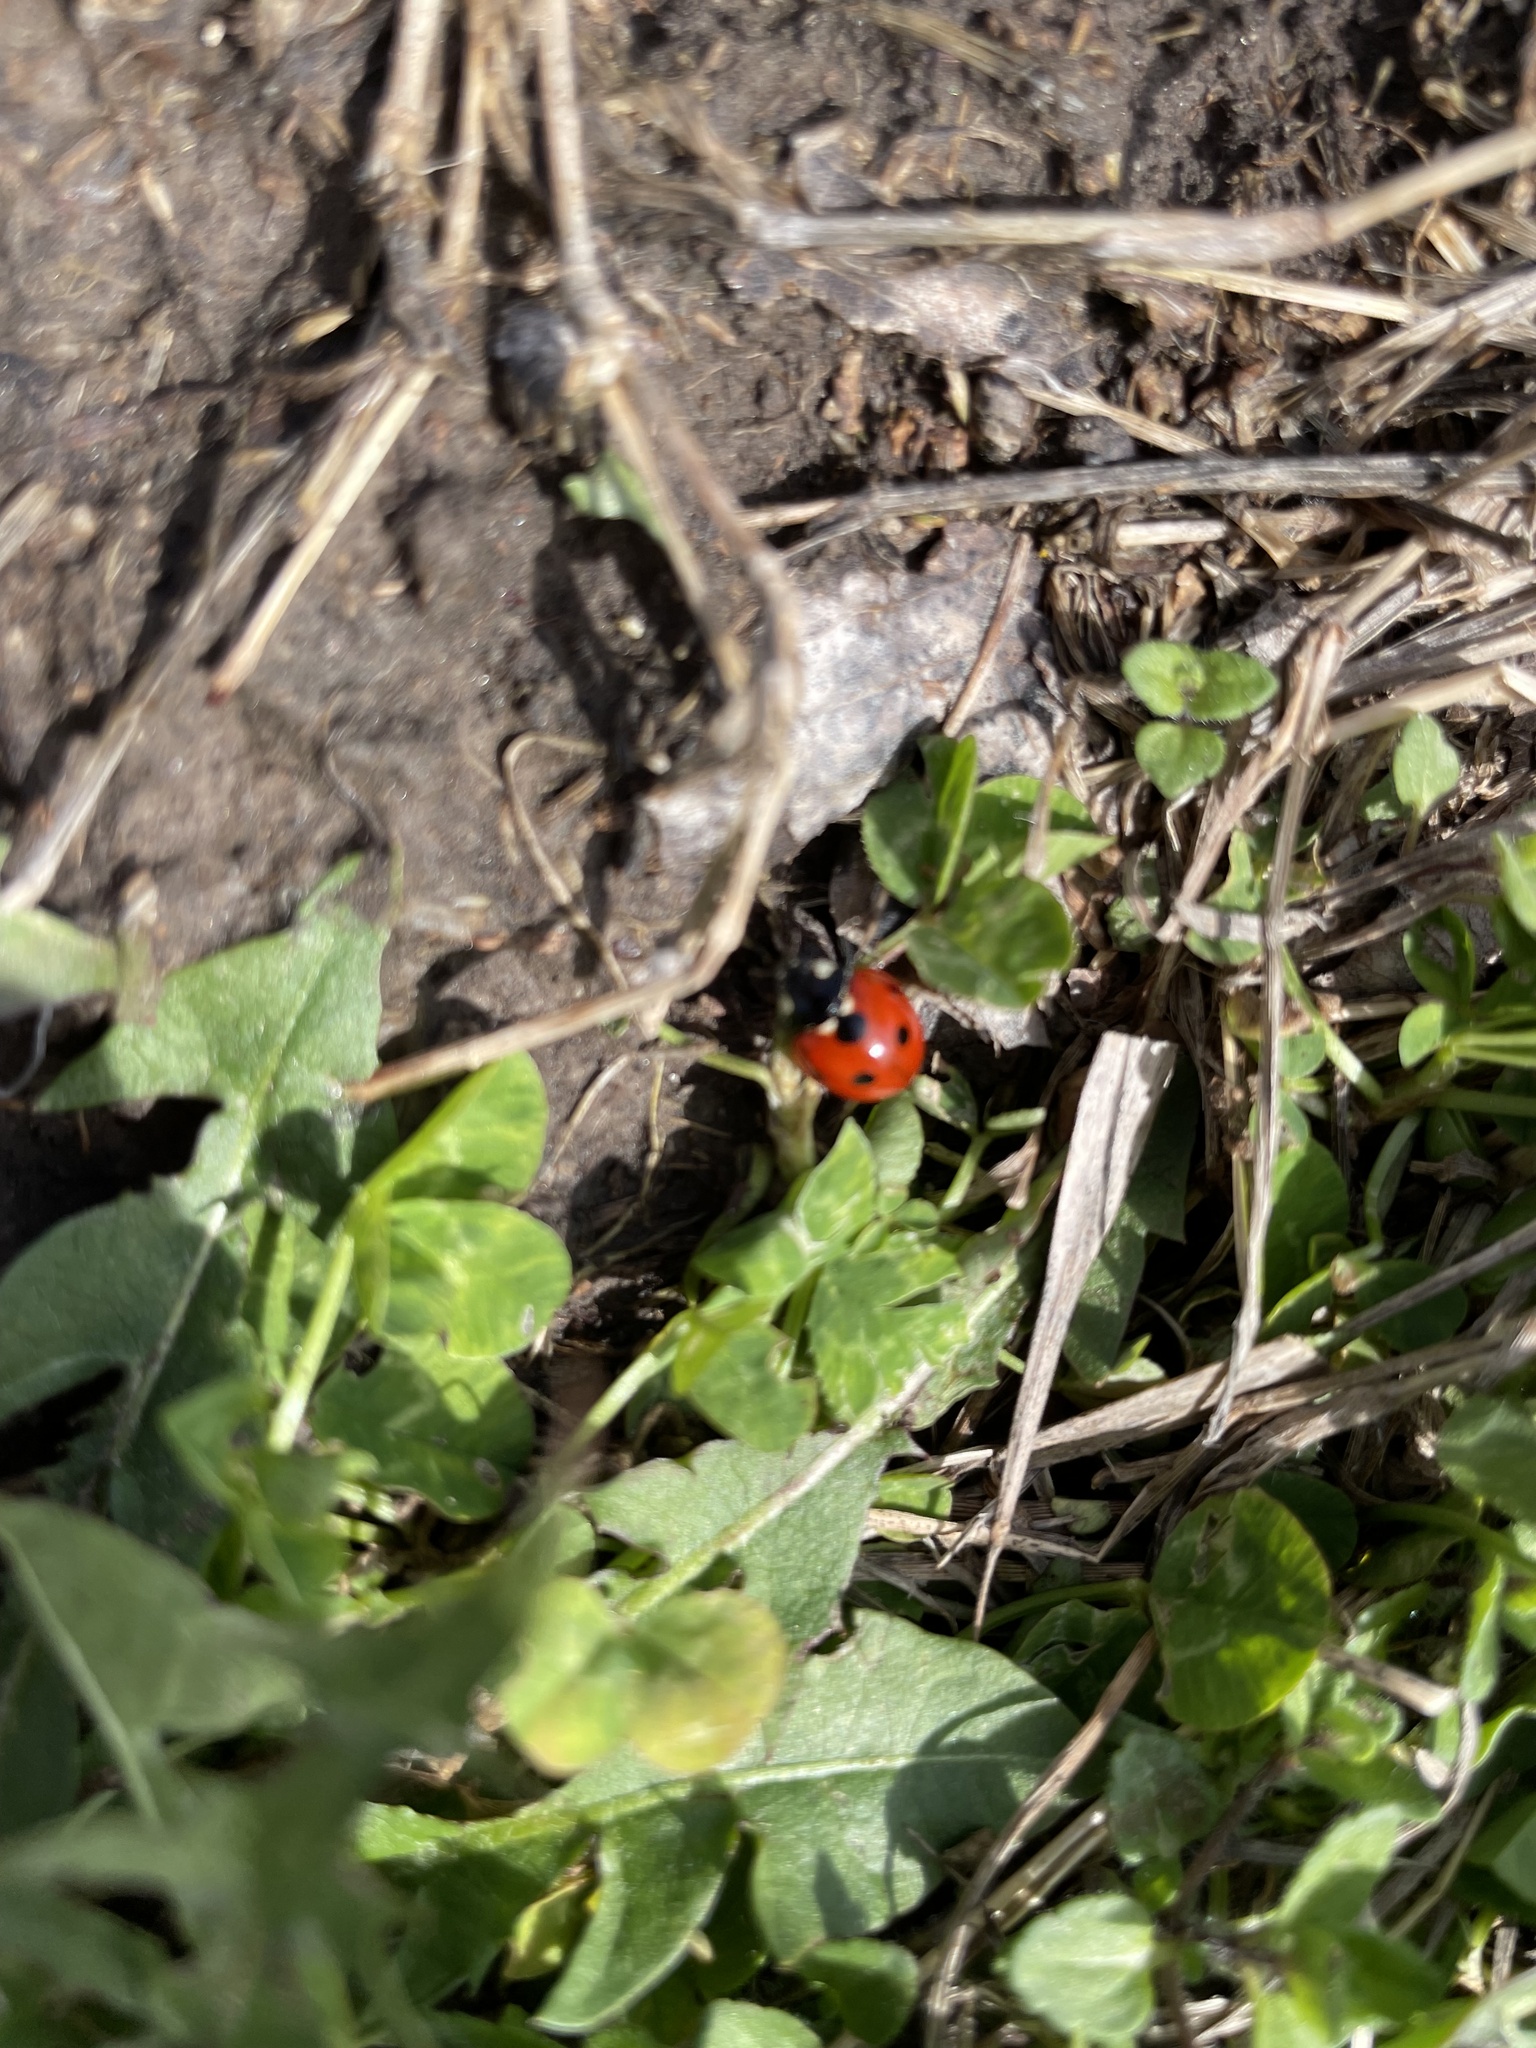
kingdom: Animalia
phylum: Arthropoda
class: Insecta
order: Coleoptera
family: Coccinellidae
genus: Coccinella
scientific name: Coccinella septempunctata
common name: Sevenspotted lady beetle
